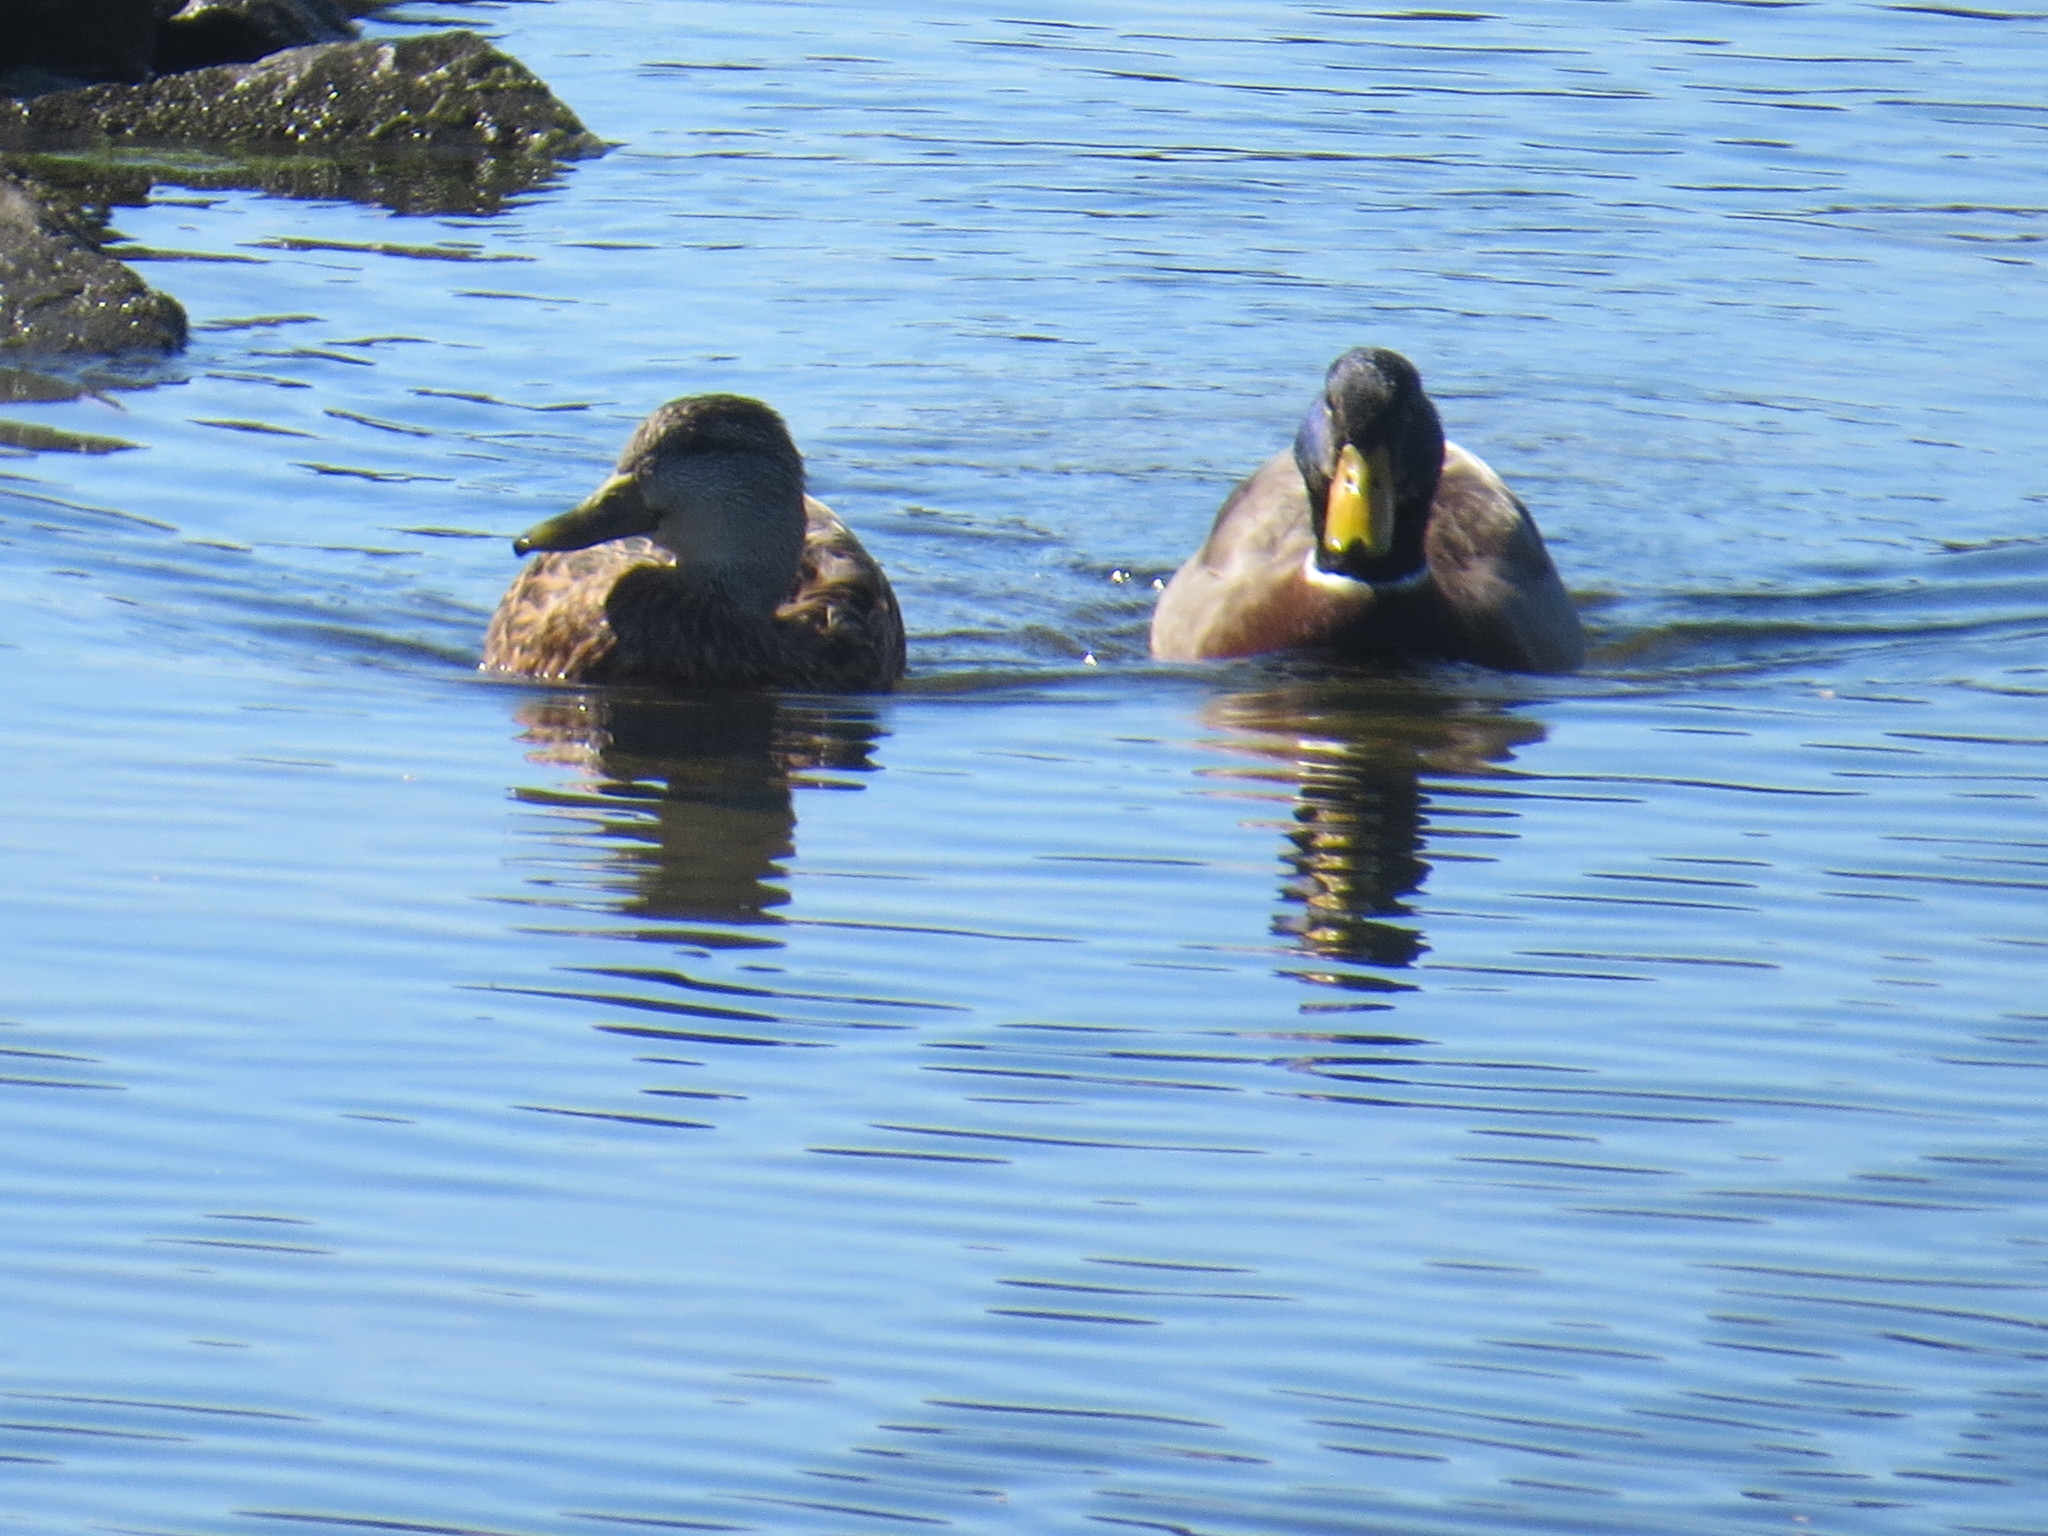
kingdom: Animalia
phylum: Chordata
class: Aves
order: Anseriformes
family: Anatidae
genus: Anas
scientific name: Anas platyrhynchos
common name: Mallard
